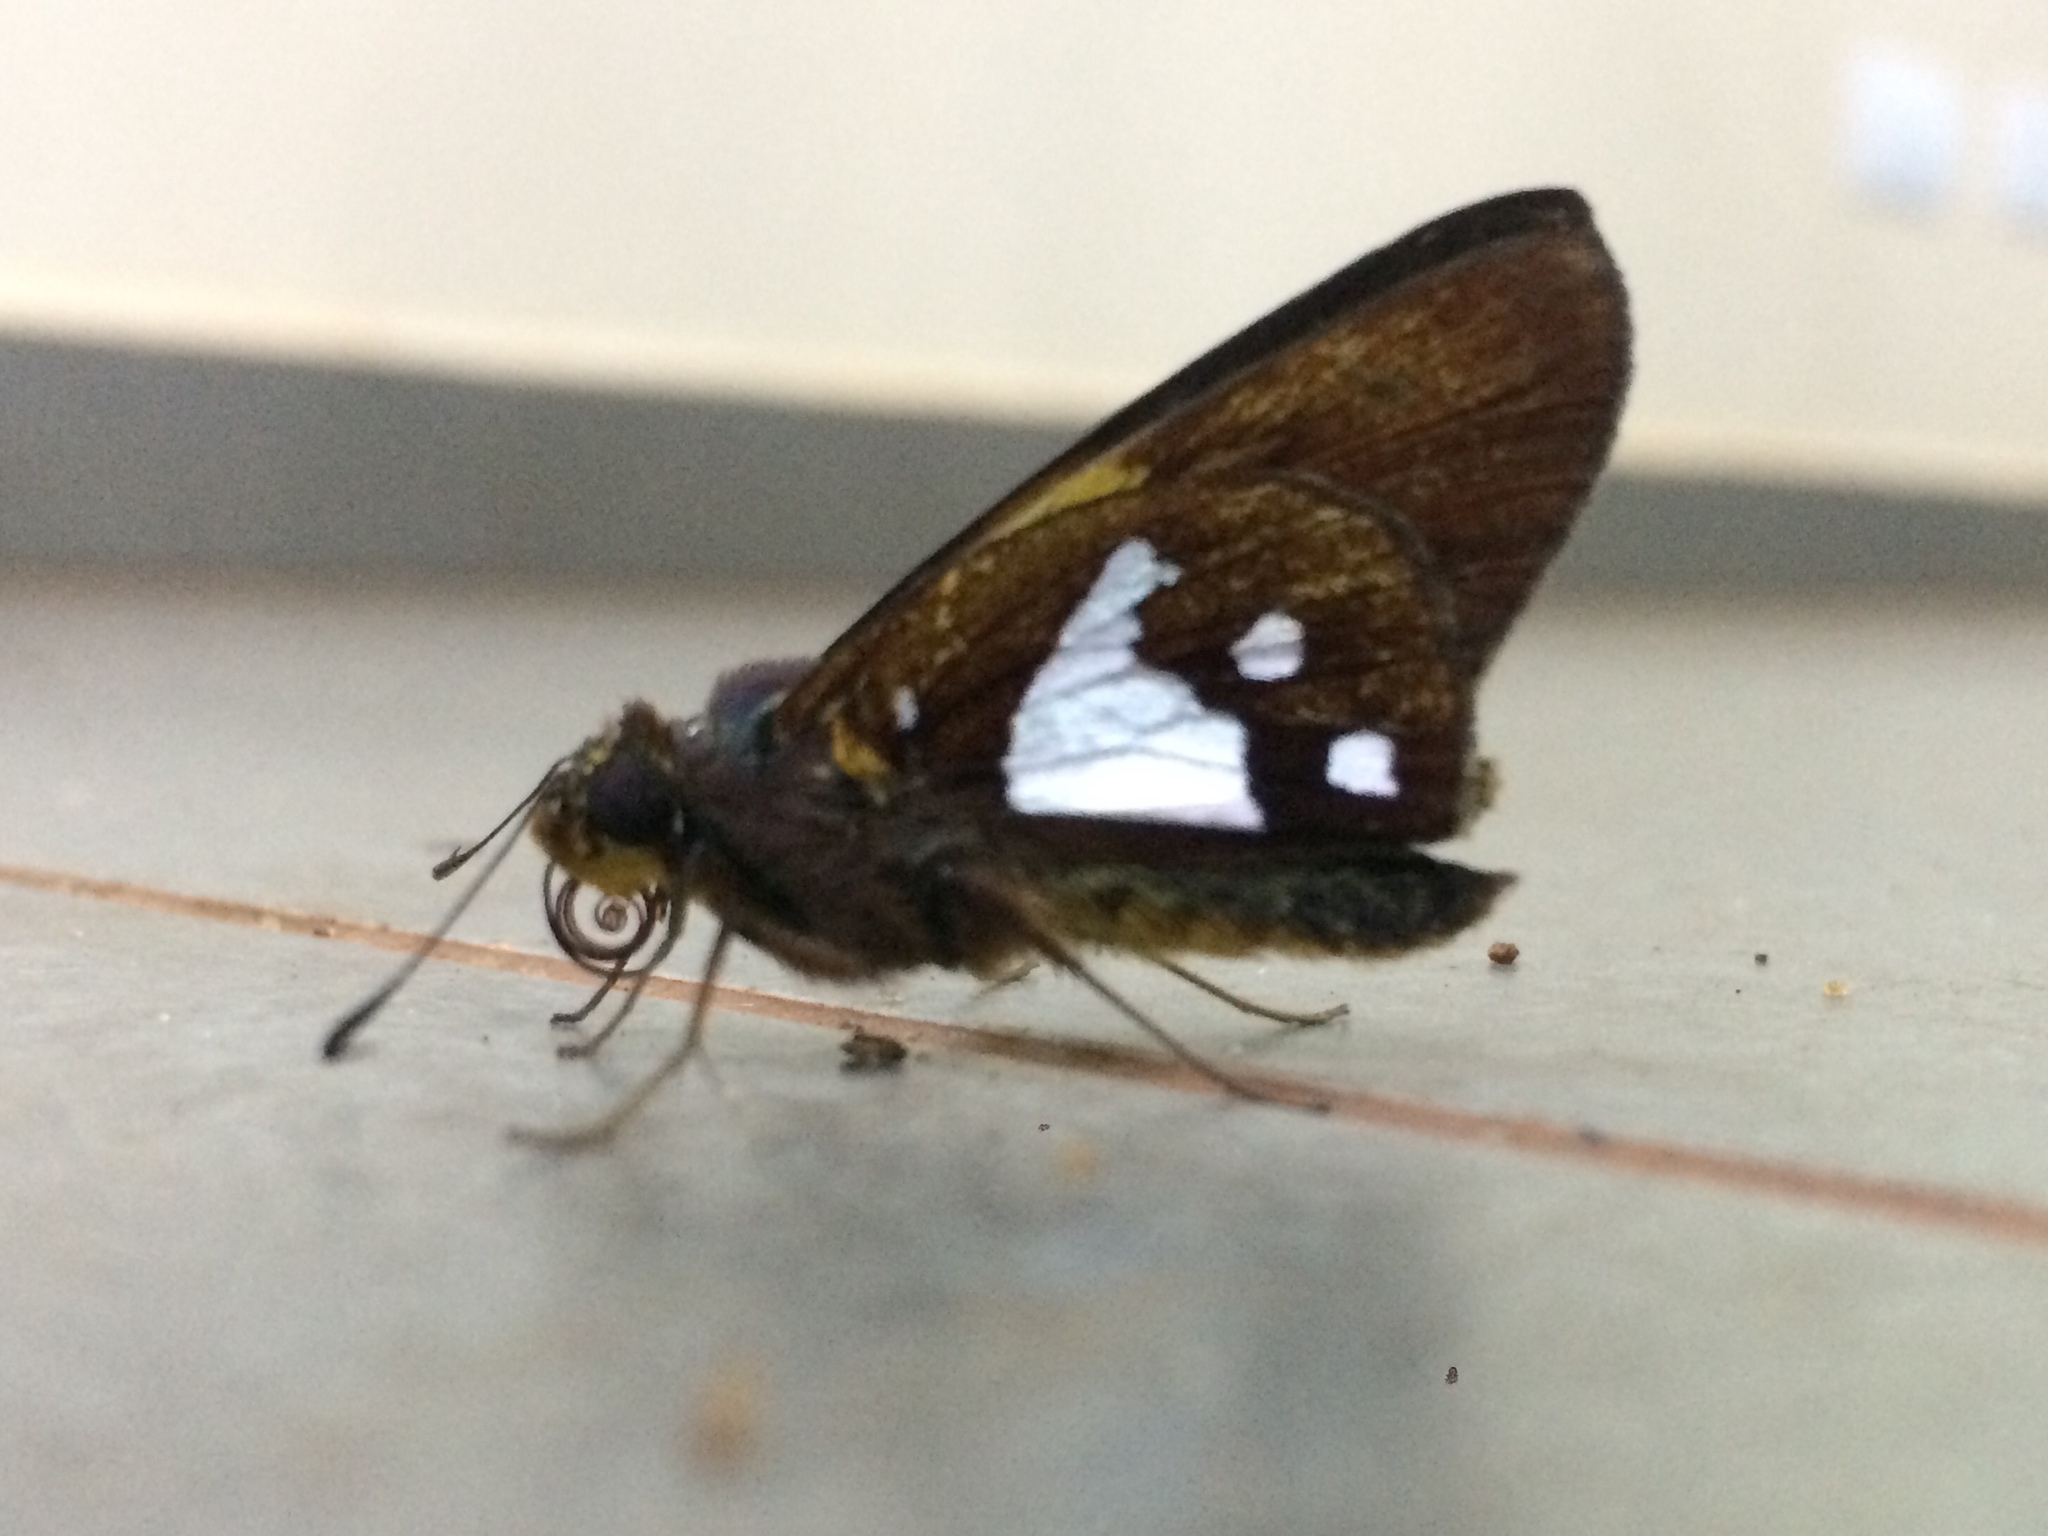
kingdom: Animalia
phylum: Arthropoda
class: Insecta
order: Lepidoptera
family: Hesperiidae
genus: Aides
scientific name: Aides epitus
